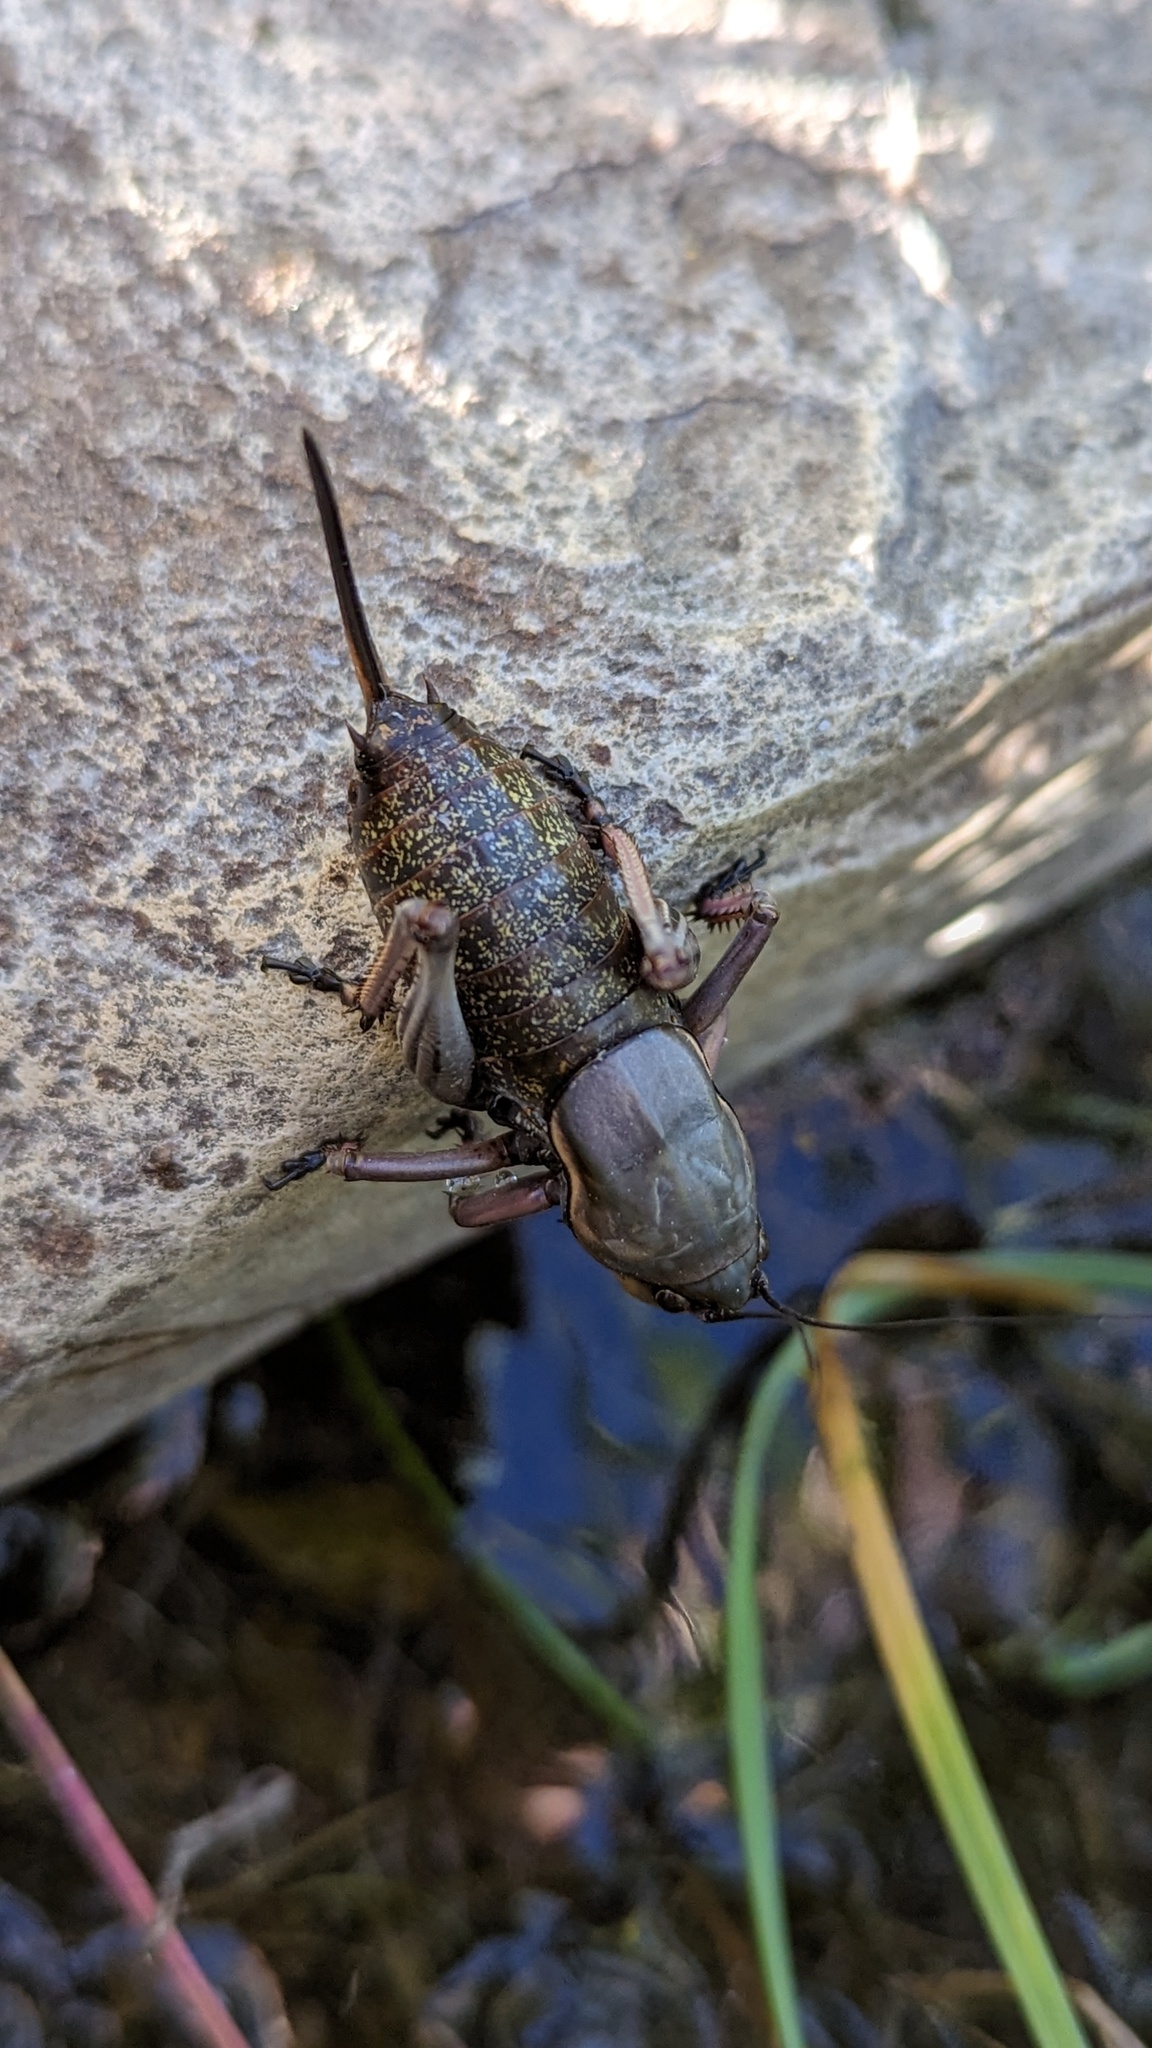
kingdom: Animalia
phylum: Arthropoda
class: Insecta
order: Orthoptera
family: Tettigoniidae
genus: Anabrus
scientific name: Anabrus simplex
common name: Mormon cricket
